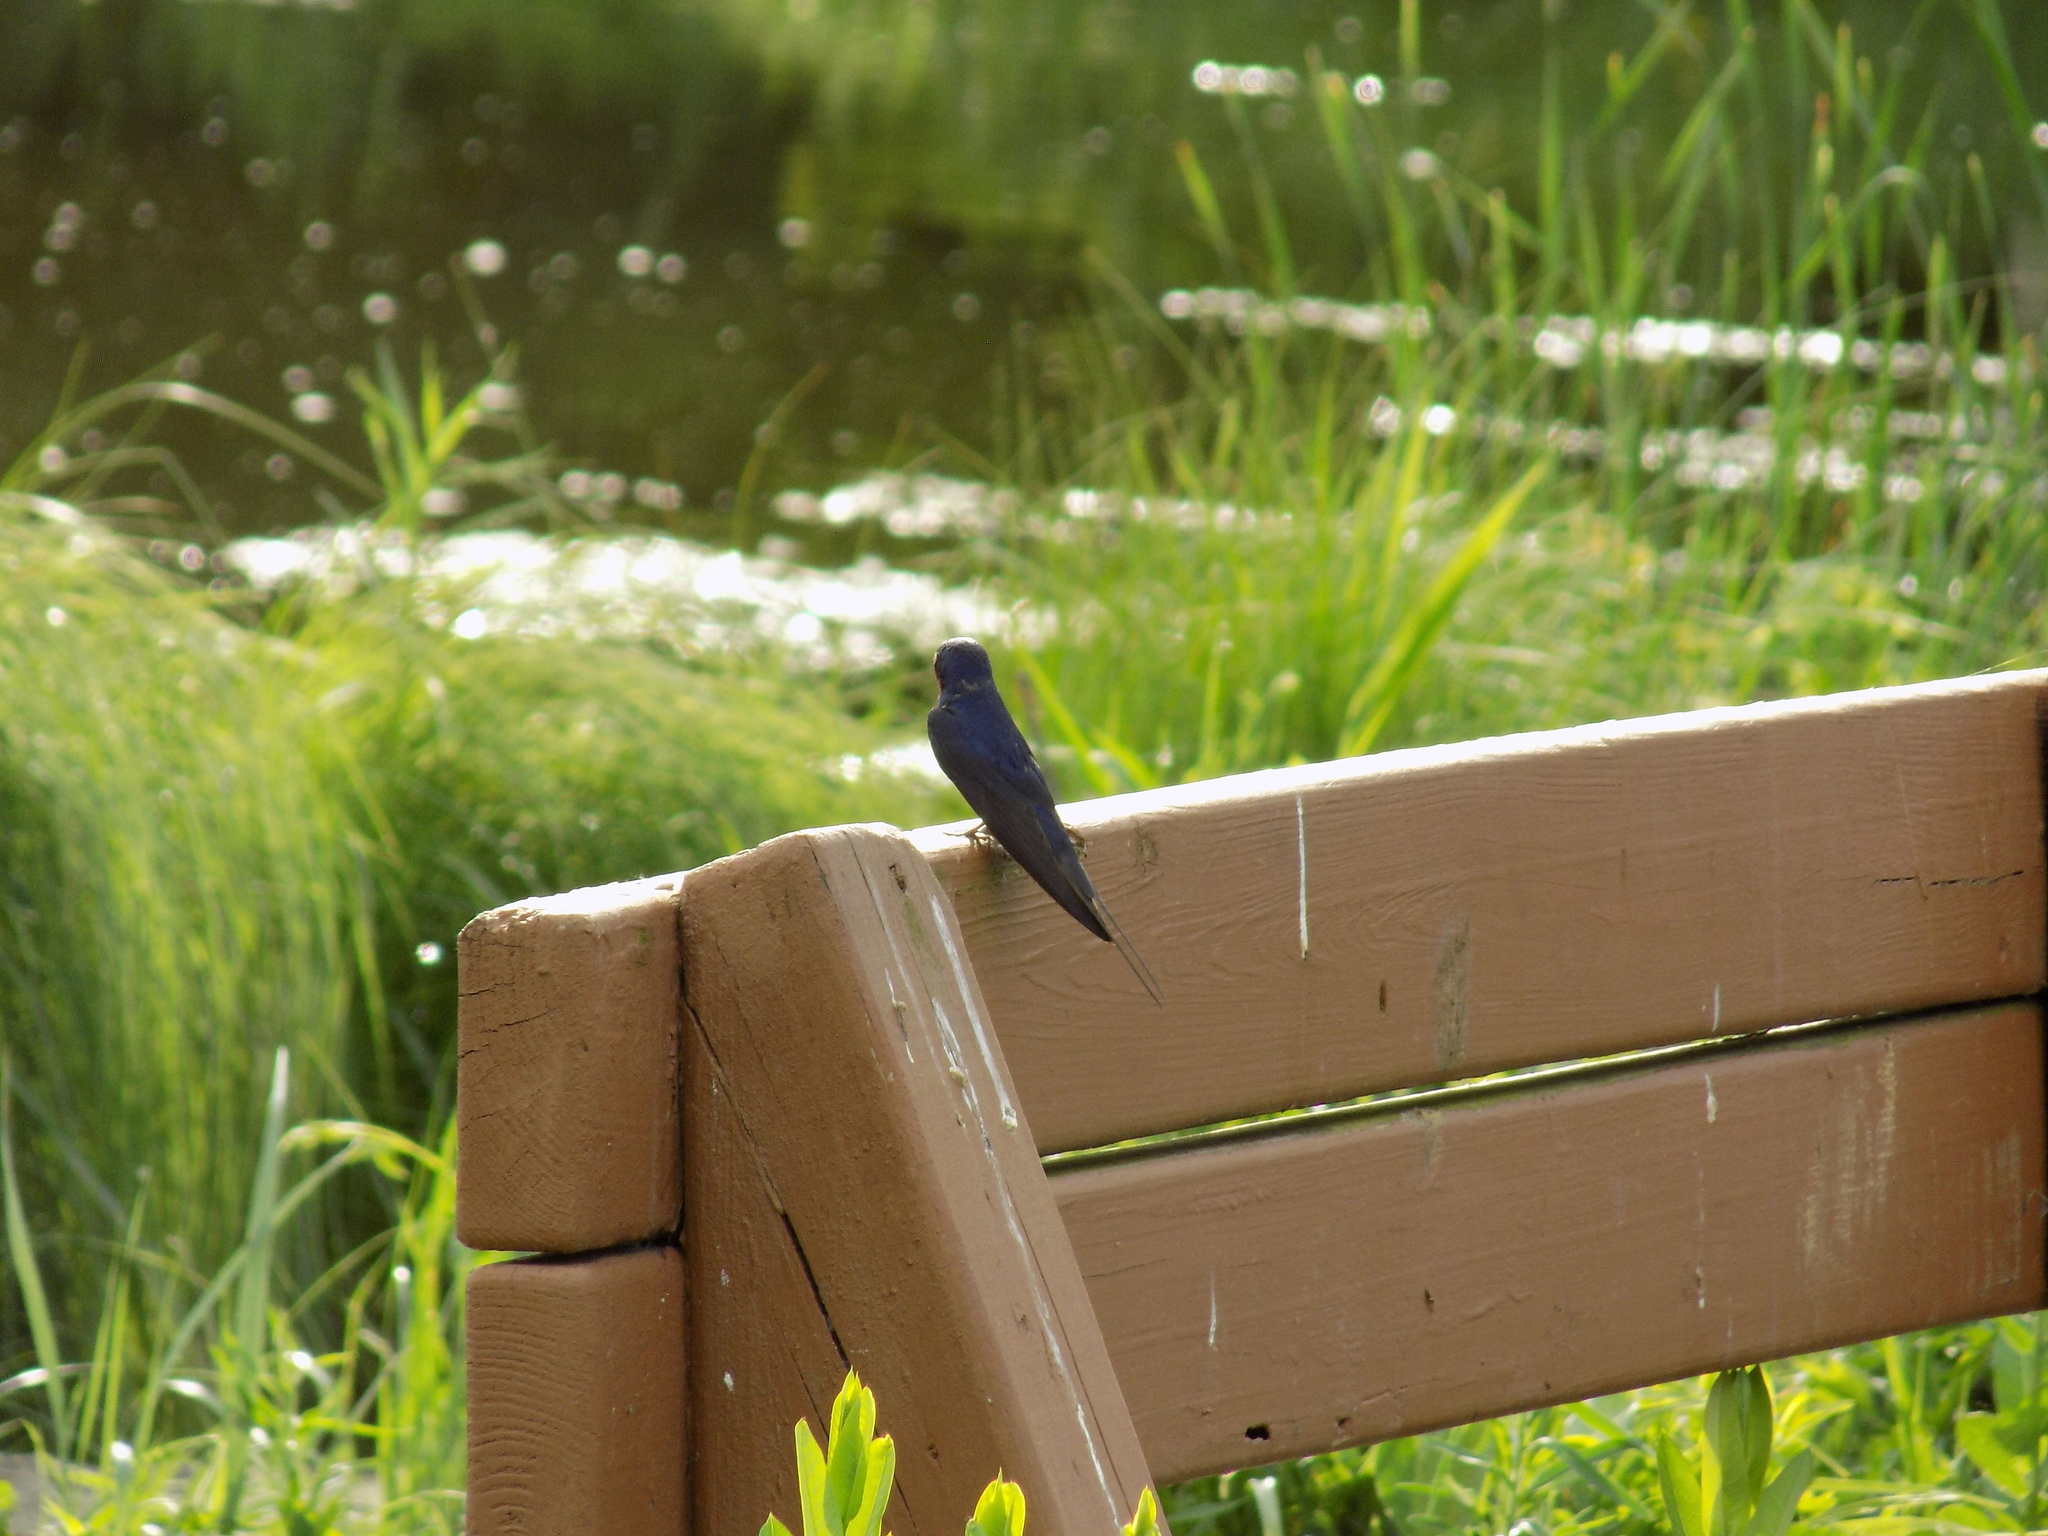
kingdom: Animalia
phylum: Chordata
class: Aves
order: Passeriformes
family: Hirundinidae
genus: Hirundo
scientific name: Hirundo rustica
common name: Barn swallow
